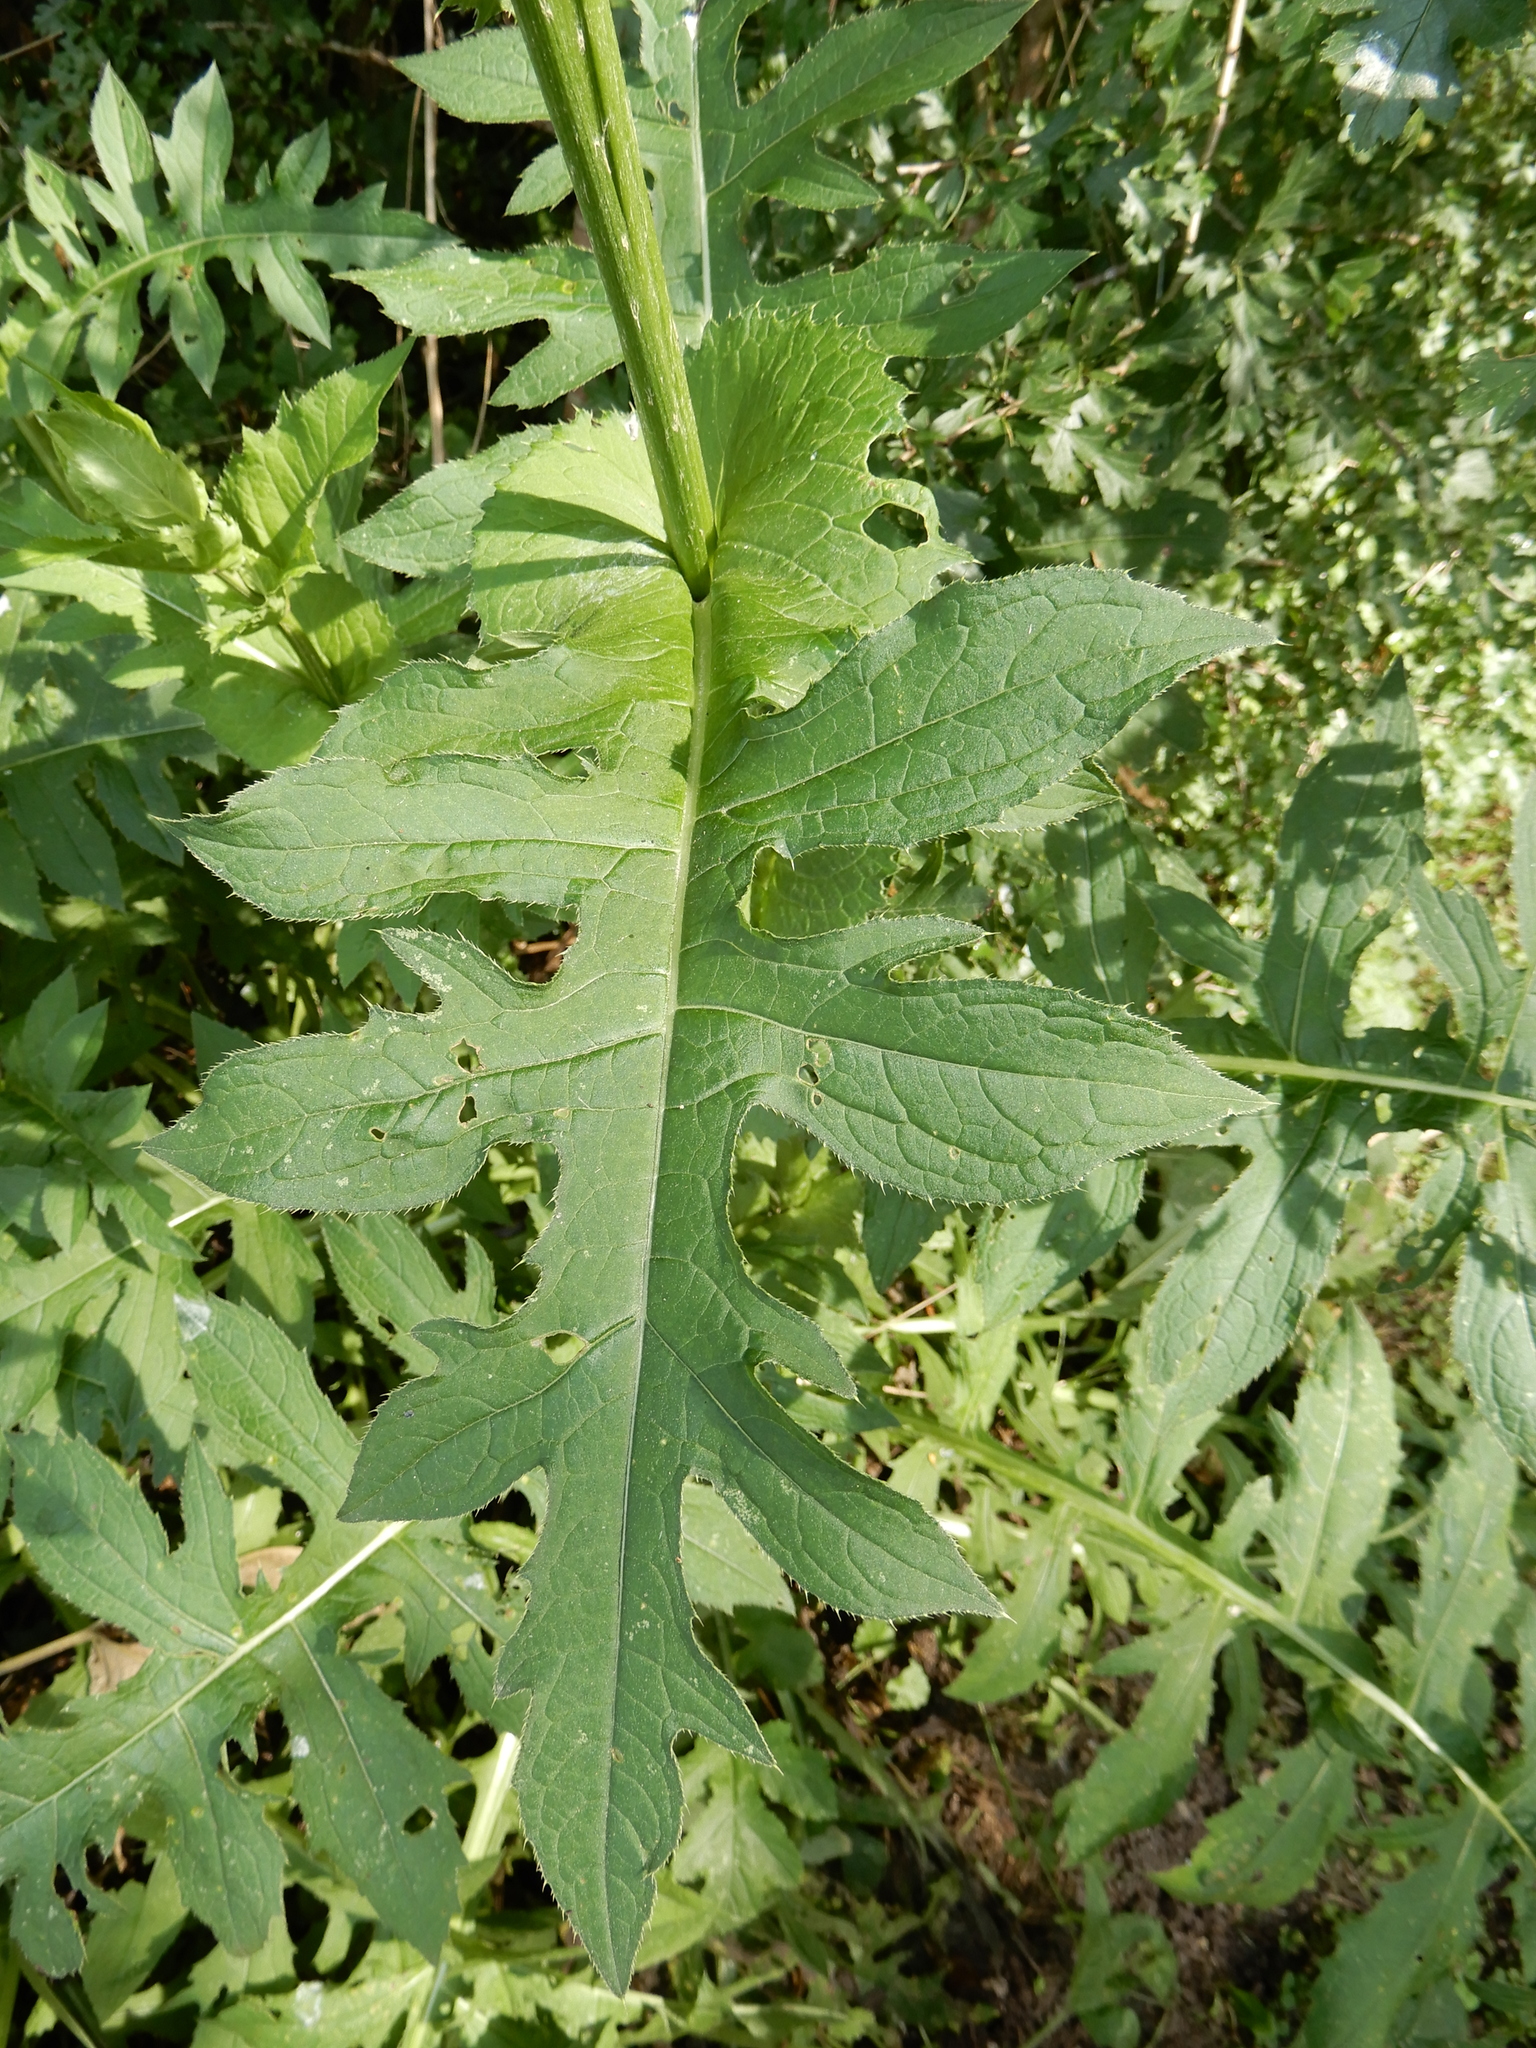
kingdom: Plantae
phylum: Tracheophyta
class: Magnoliopsida
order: Asterales
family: Asteraceae
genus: Cirsium
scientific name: Cirsium oleraceum
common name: Cabbage thistle
